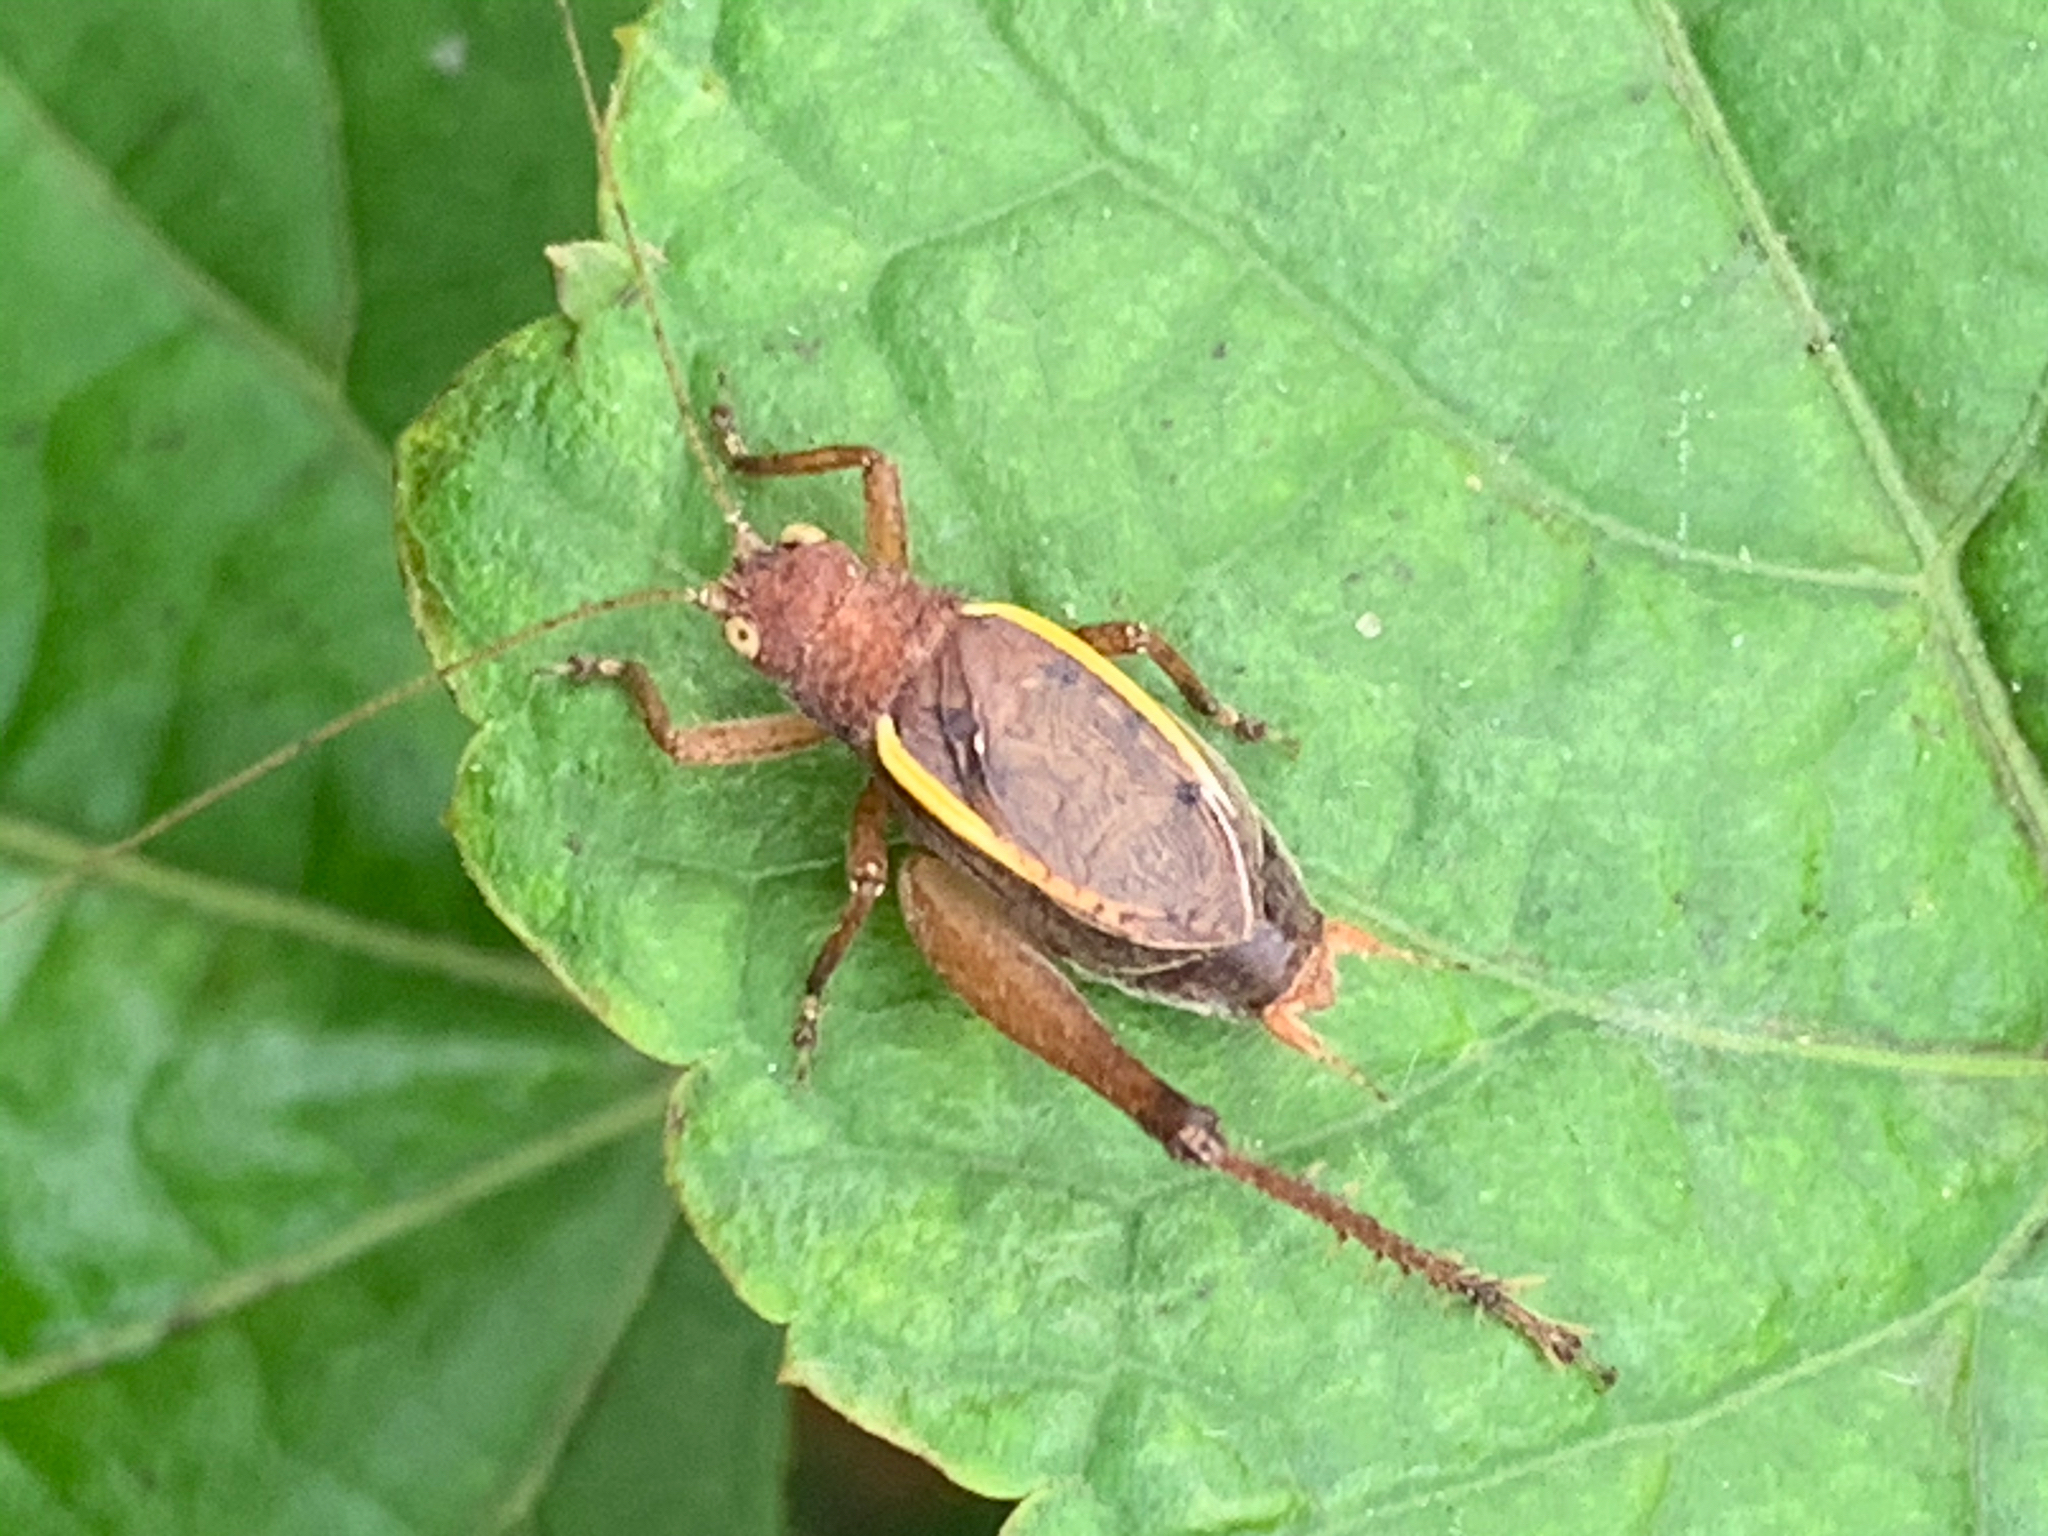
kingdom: Animalia
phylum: Arthropoda
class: Insecta
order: Orthoptera
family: Gryllidae
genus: Hapithus
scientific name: Hapithus agitator
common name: Restless bush cricket
